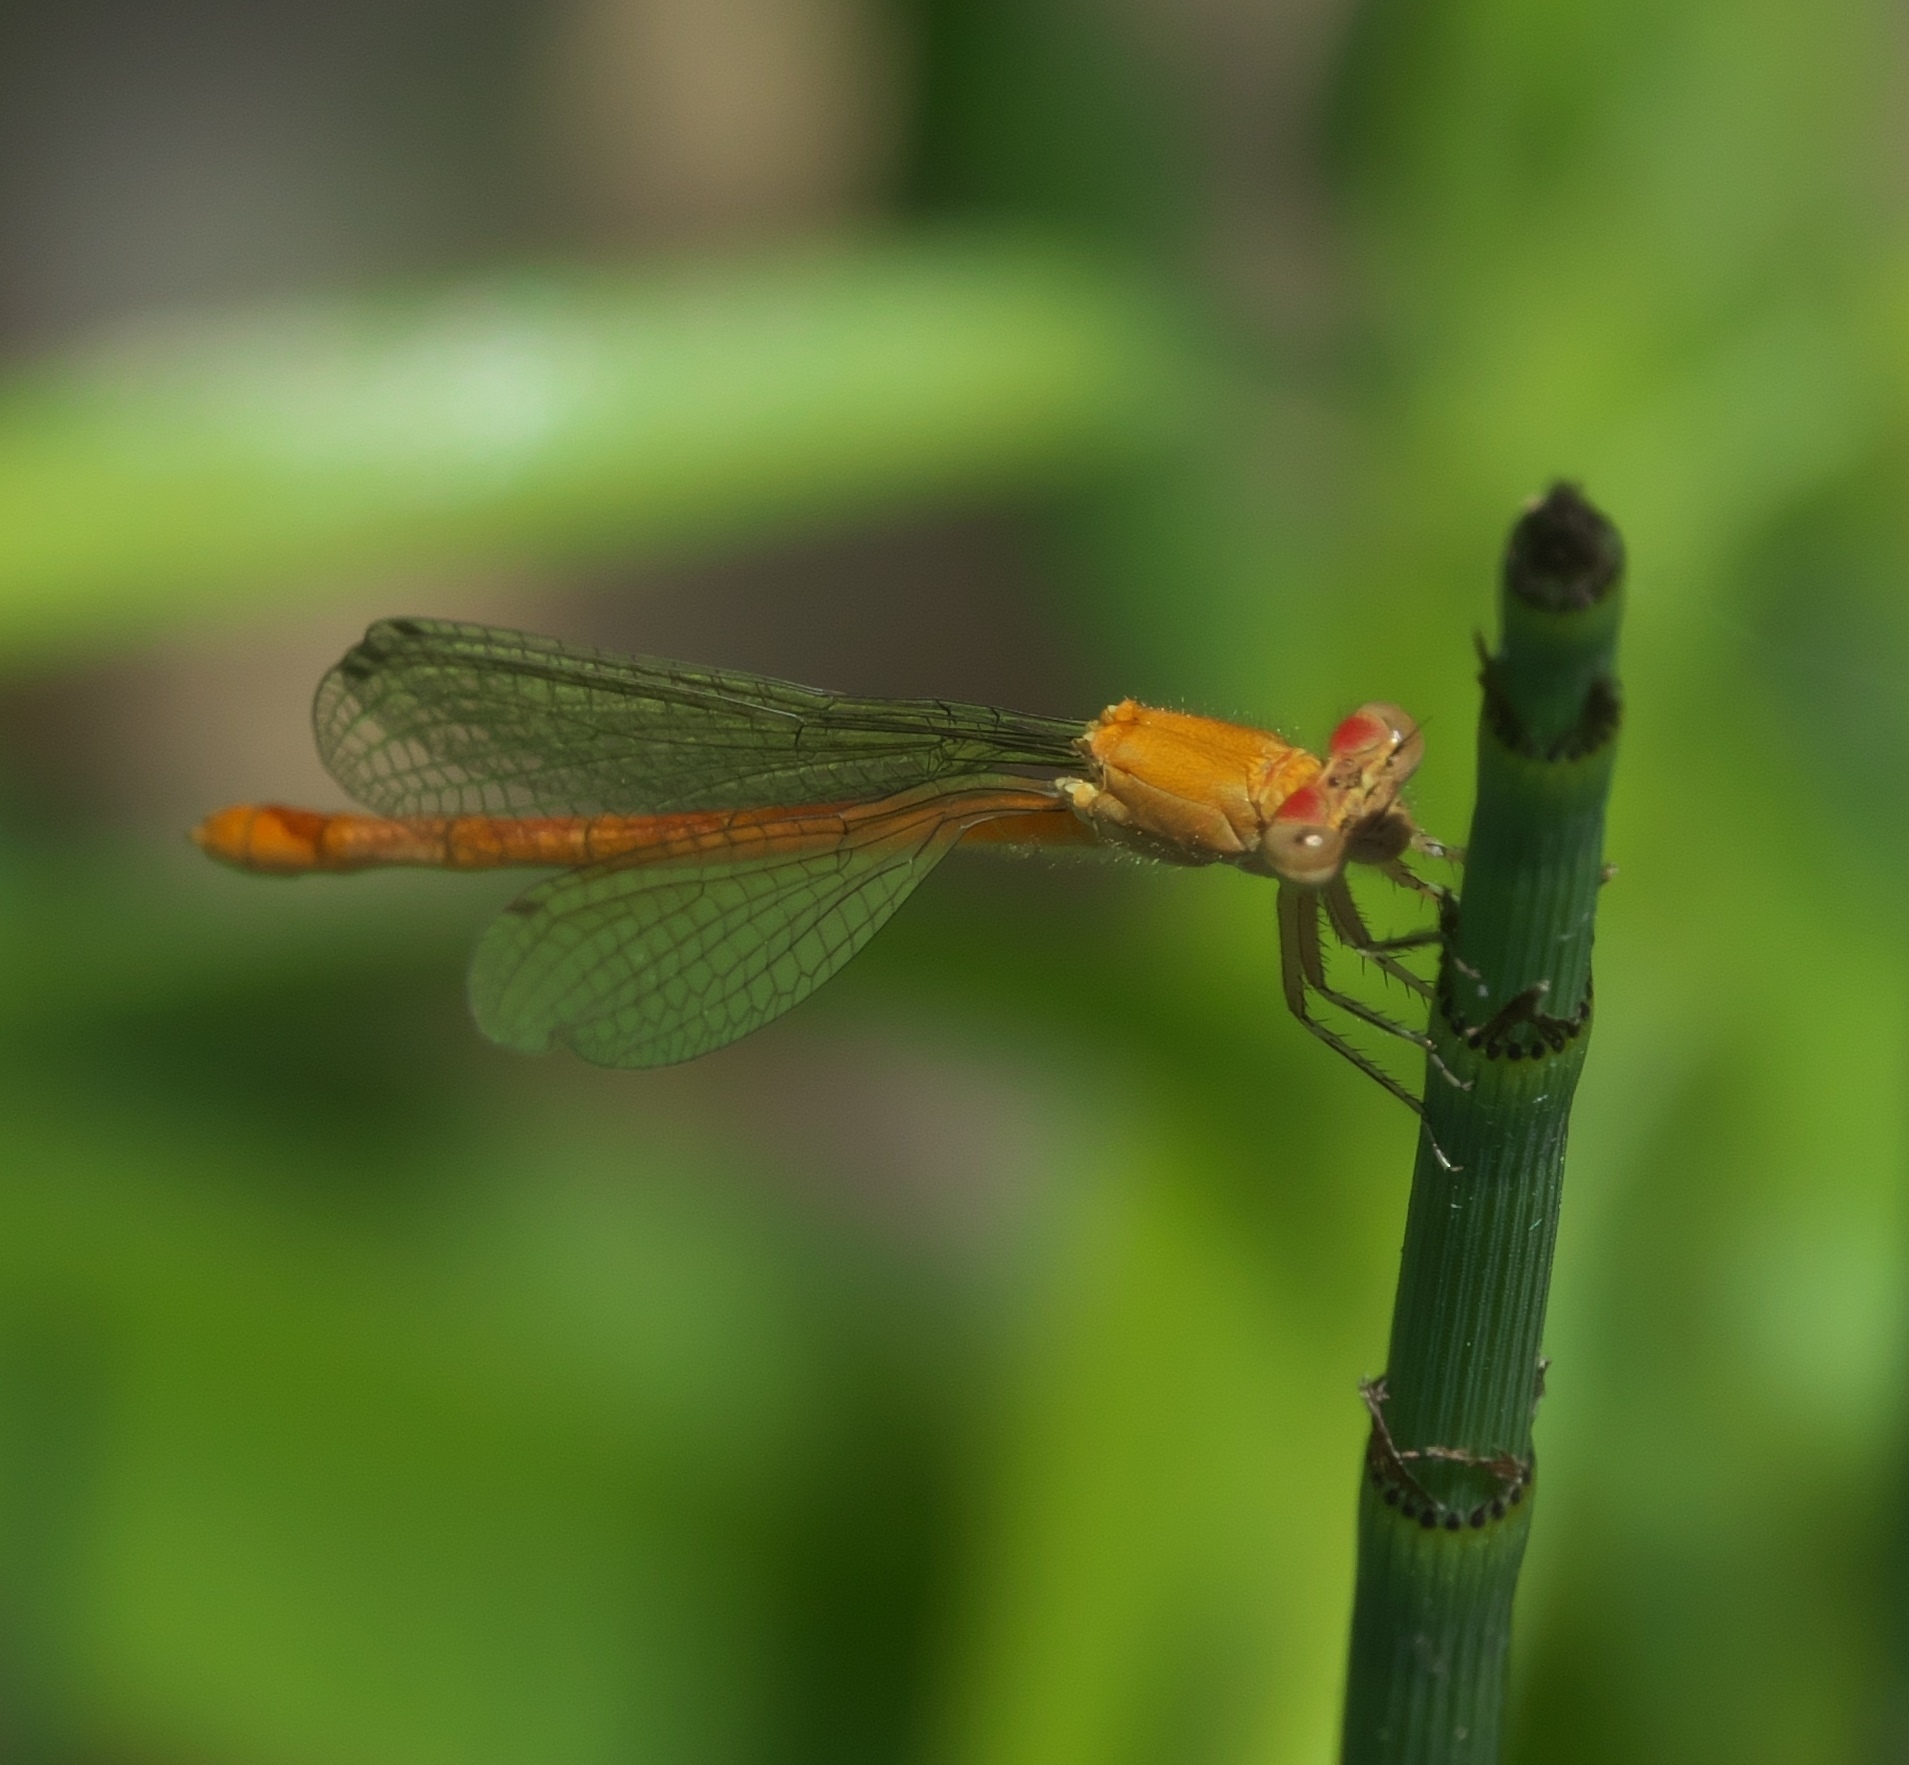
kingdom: Animalia
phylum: Arthropoda
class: Insecta
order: Odonata
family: Coenagrionidae
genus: Hesperagrion
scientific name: Hesperagrion heterodoxum
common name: Painted damsel
